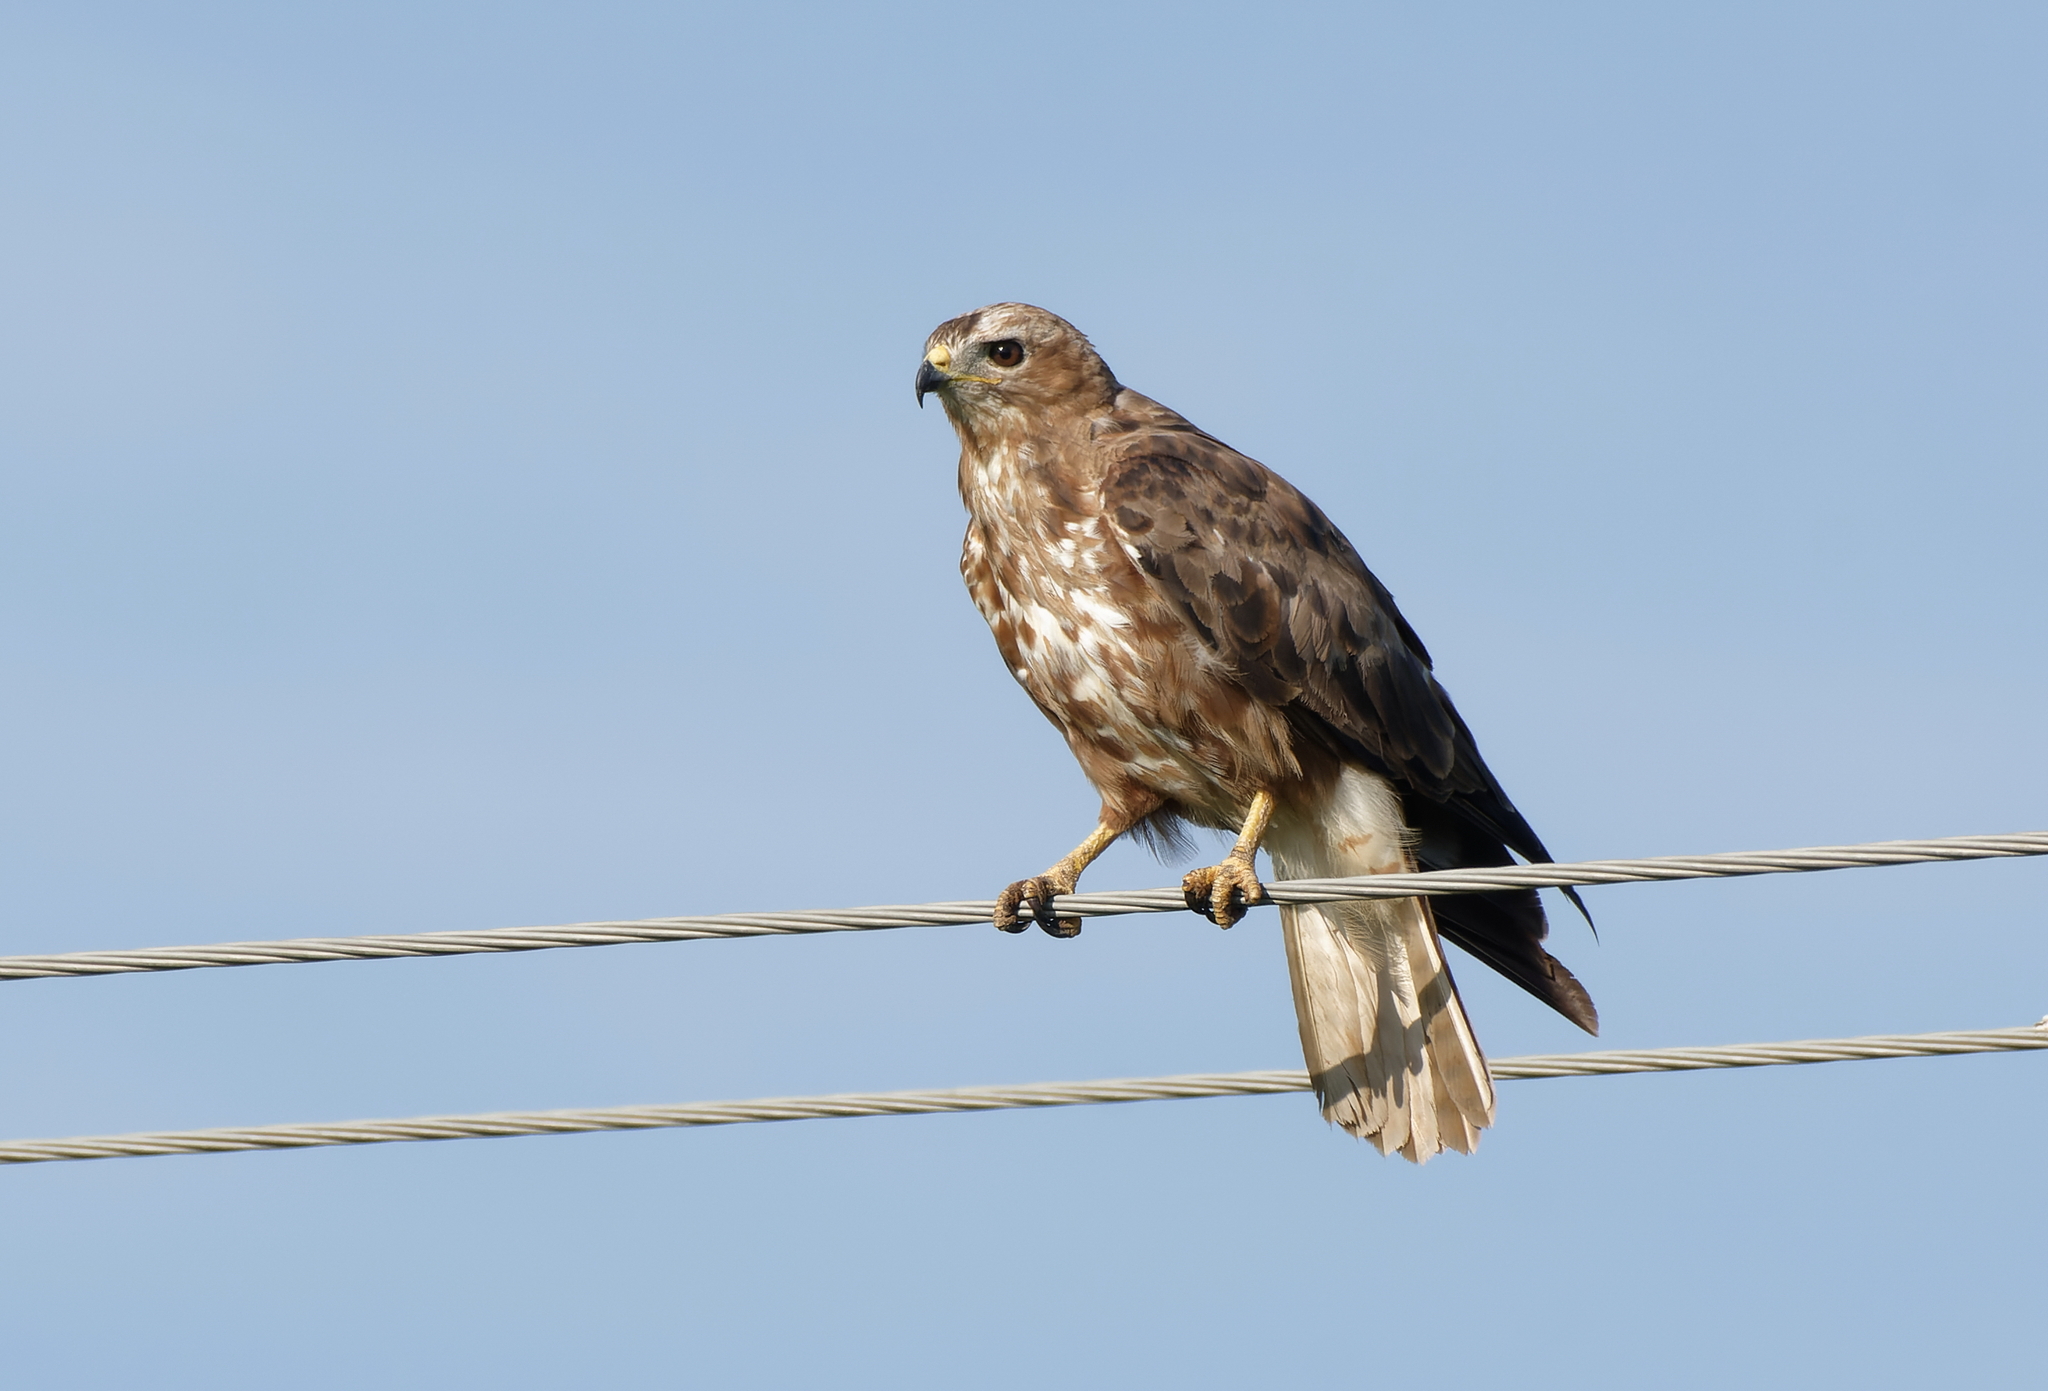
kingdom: Animalia
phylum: Chordata
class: Aves
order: Accipitriformes
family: Accipitridae
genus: Buteo
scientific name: Buteo buteo
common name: Common buzzard
